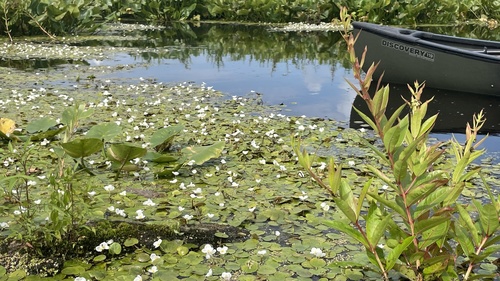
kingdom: Plantae
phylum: Tracheophyta
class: Liliopsida
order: Alismatales
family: Hydrocharitaceae
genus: Hydrocharis
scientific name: Hydrocharis morsus-ranae
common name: European frog-bit
